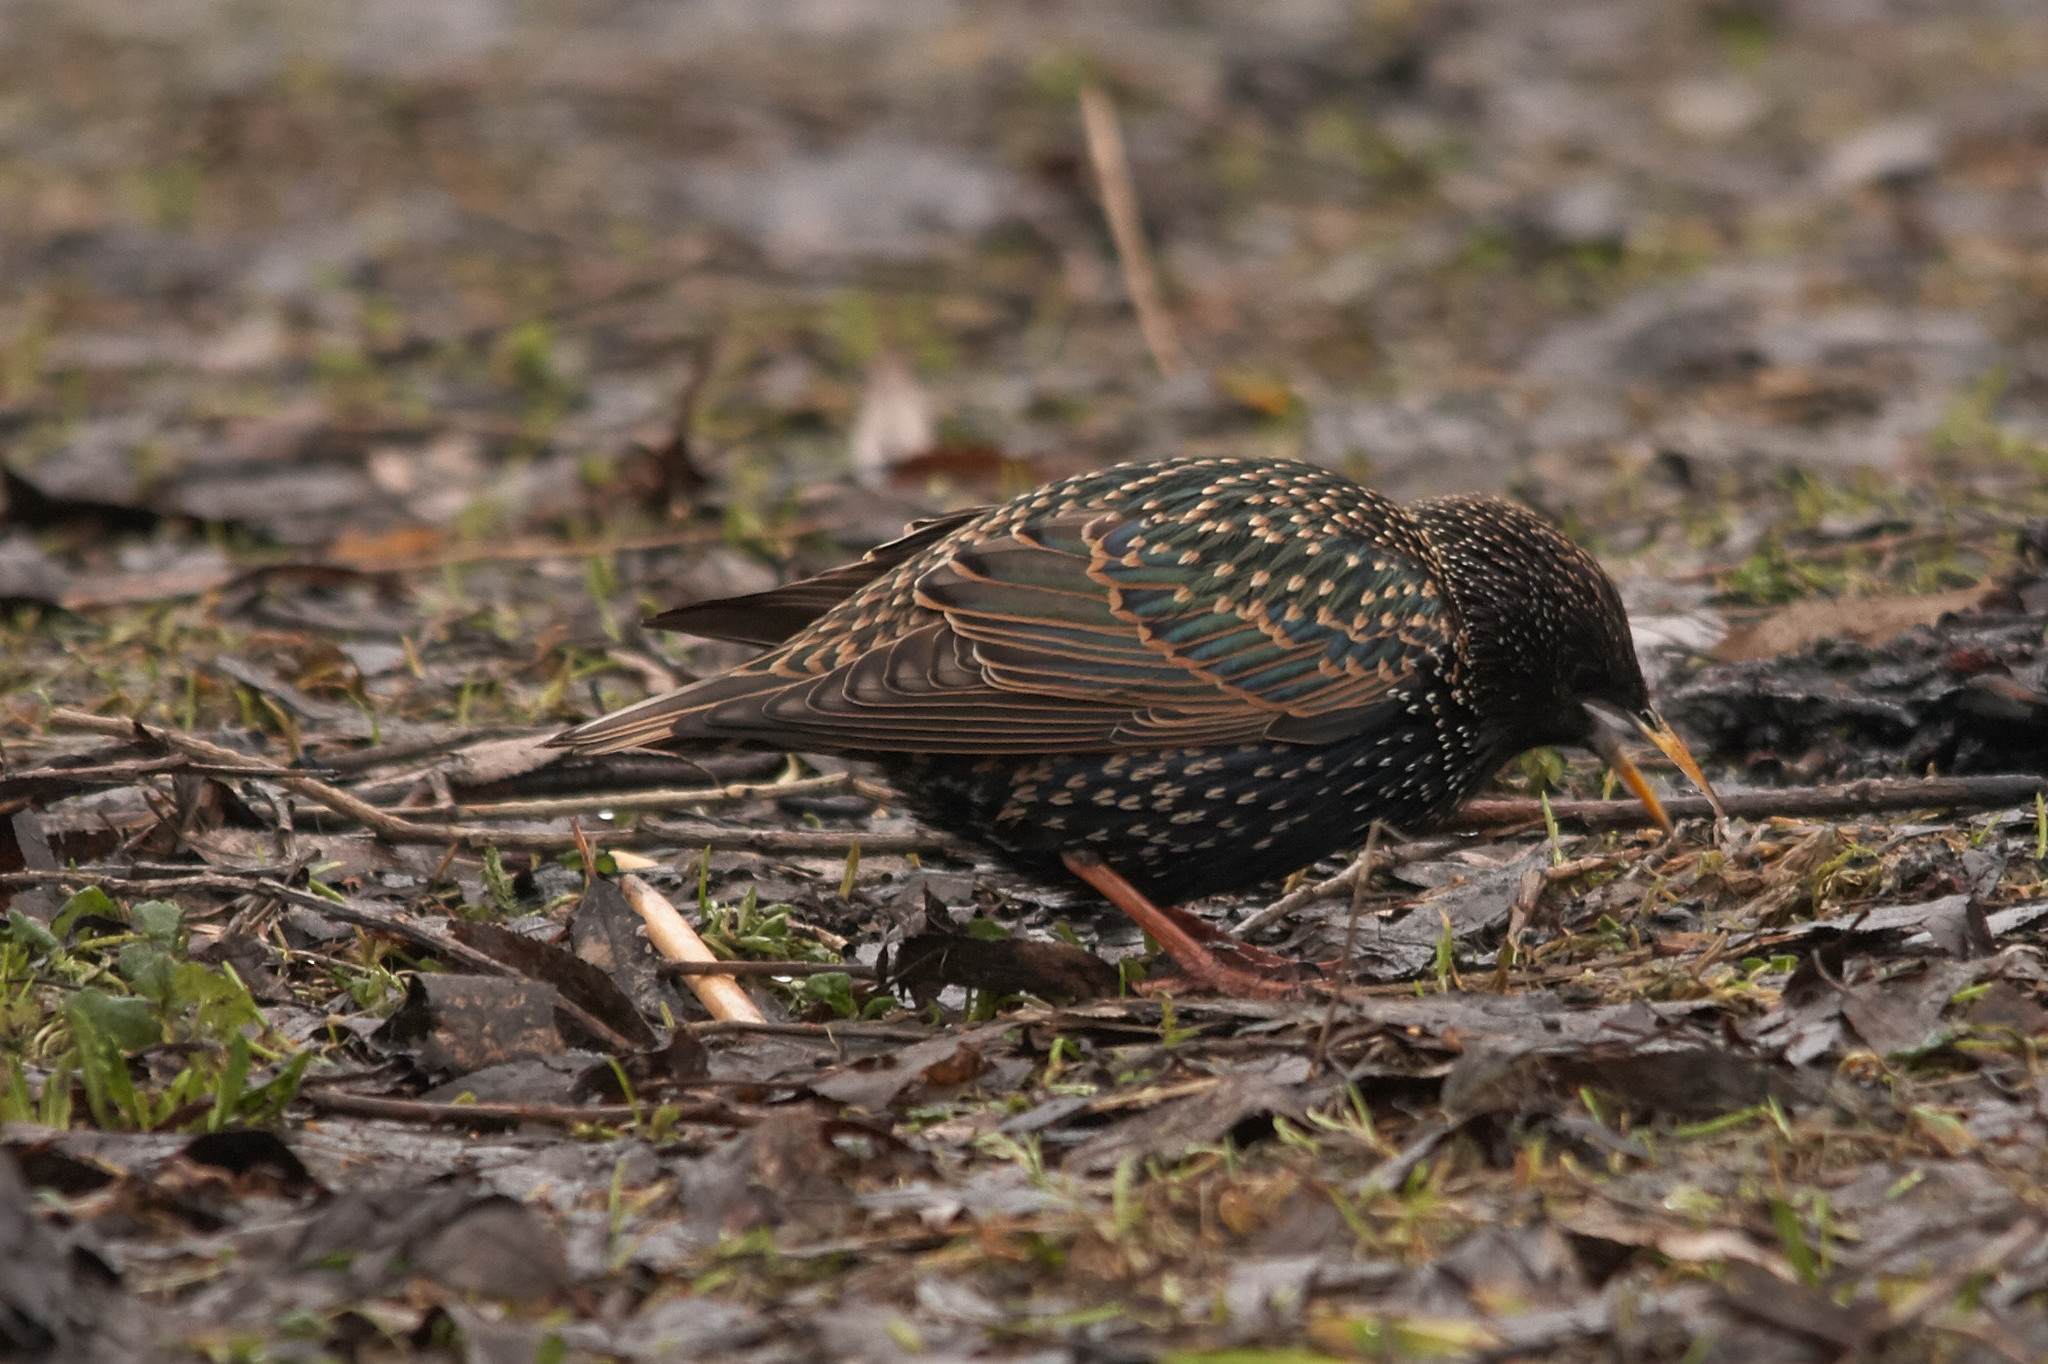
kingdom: Animalia
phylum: Chordata
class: Aves
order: Passeriformes
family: Sturnidae
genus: Sturnus
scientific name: Sturnus vulgaris
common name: Common starling
